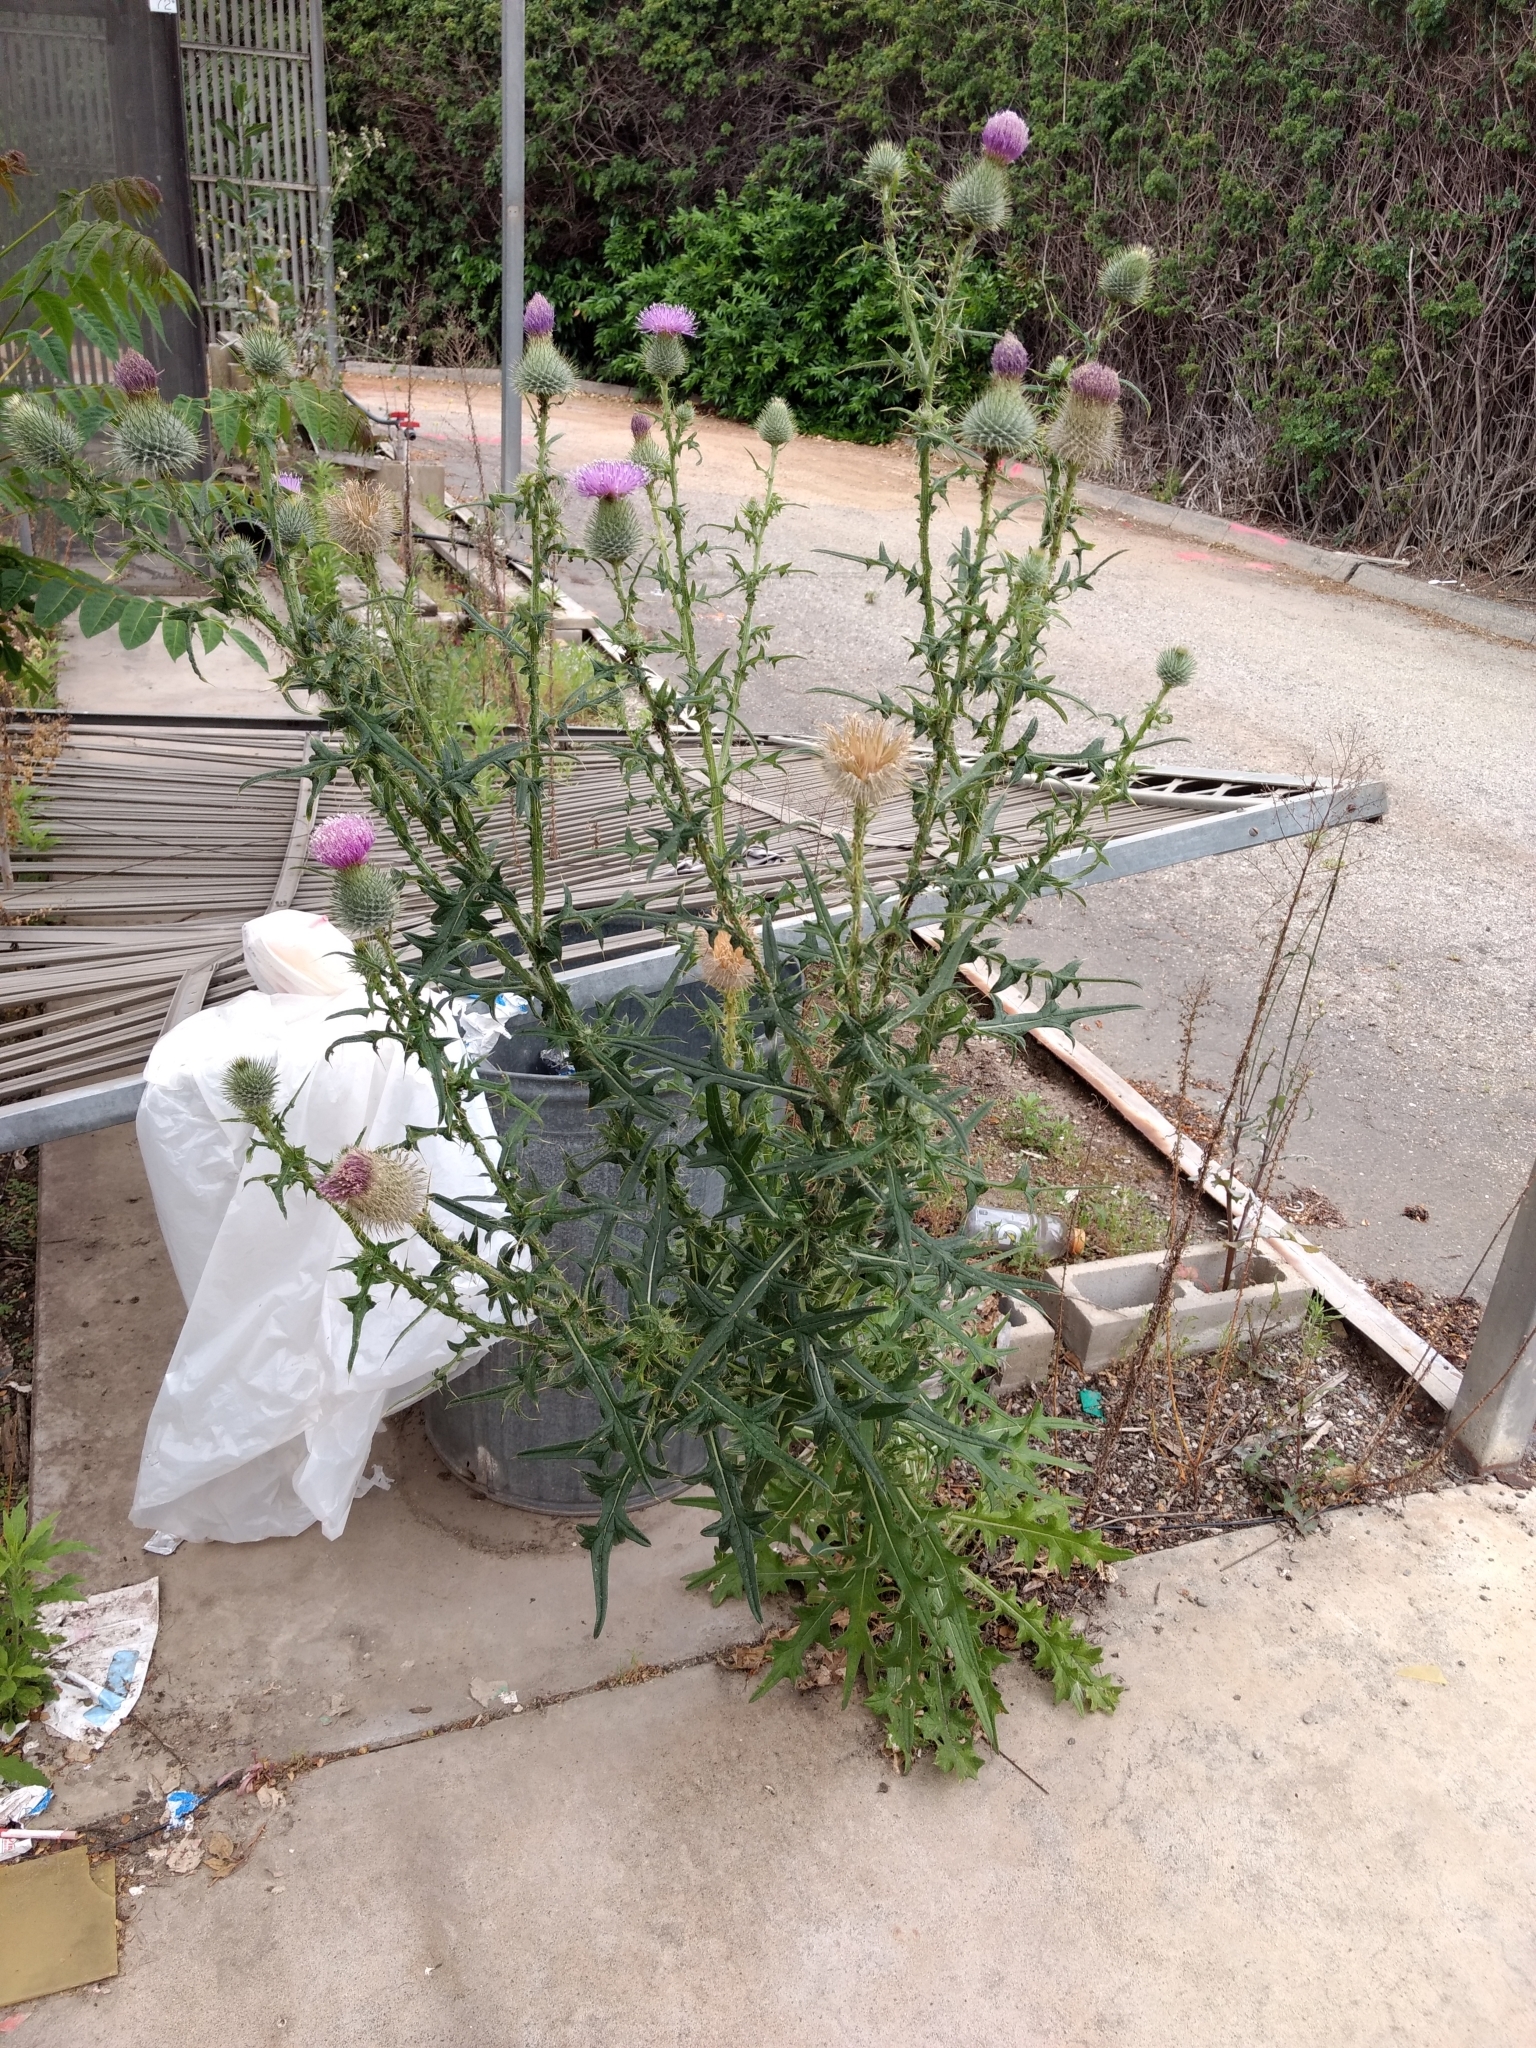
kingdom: Plantae
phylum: Tracheophyta
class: Magnoliopsida
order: Asterales
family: Asteraceae
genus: Cirsium
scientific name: Cirsium vulgare
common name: Bull thistle
